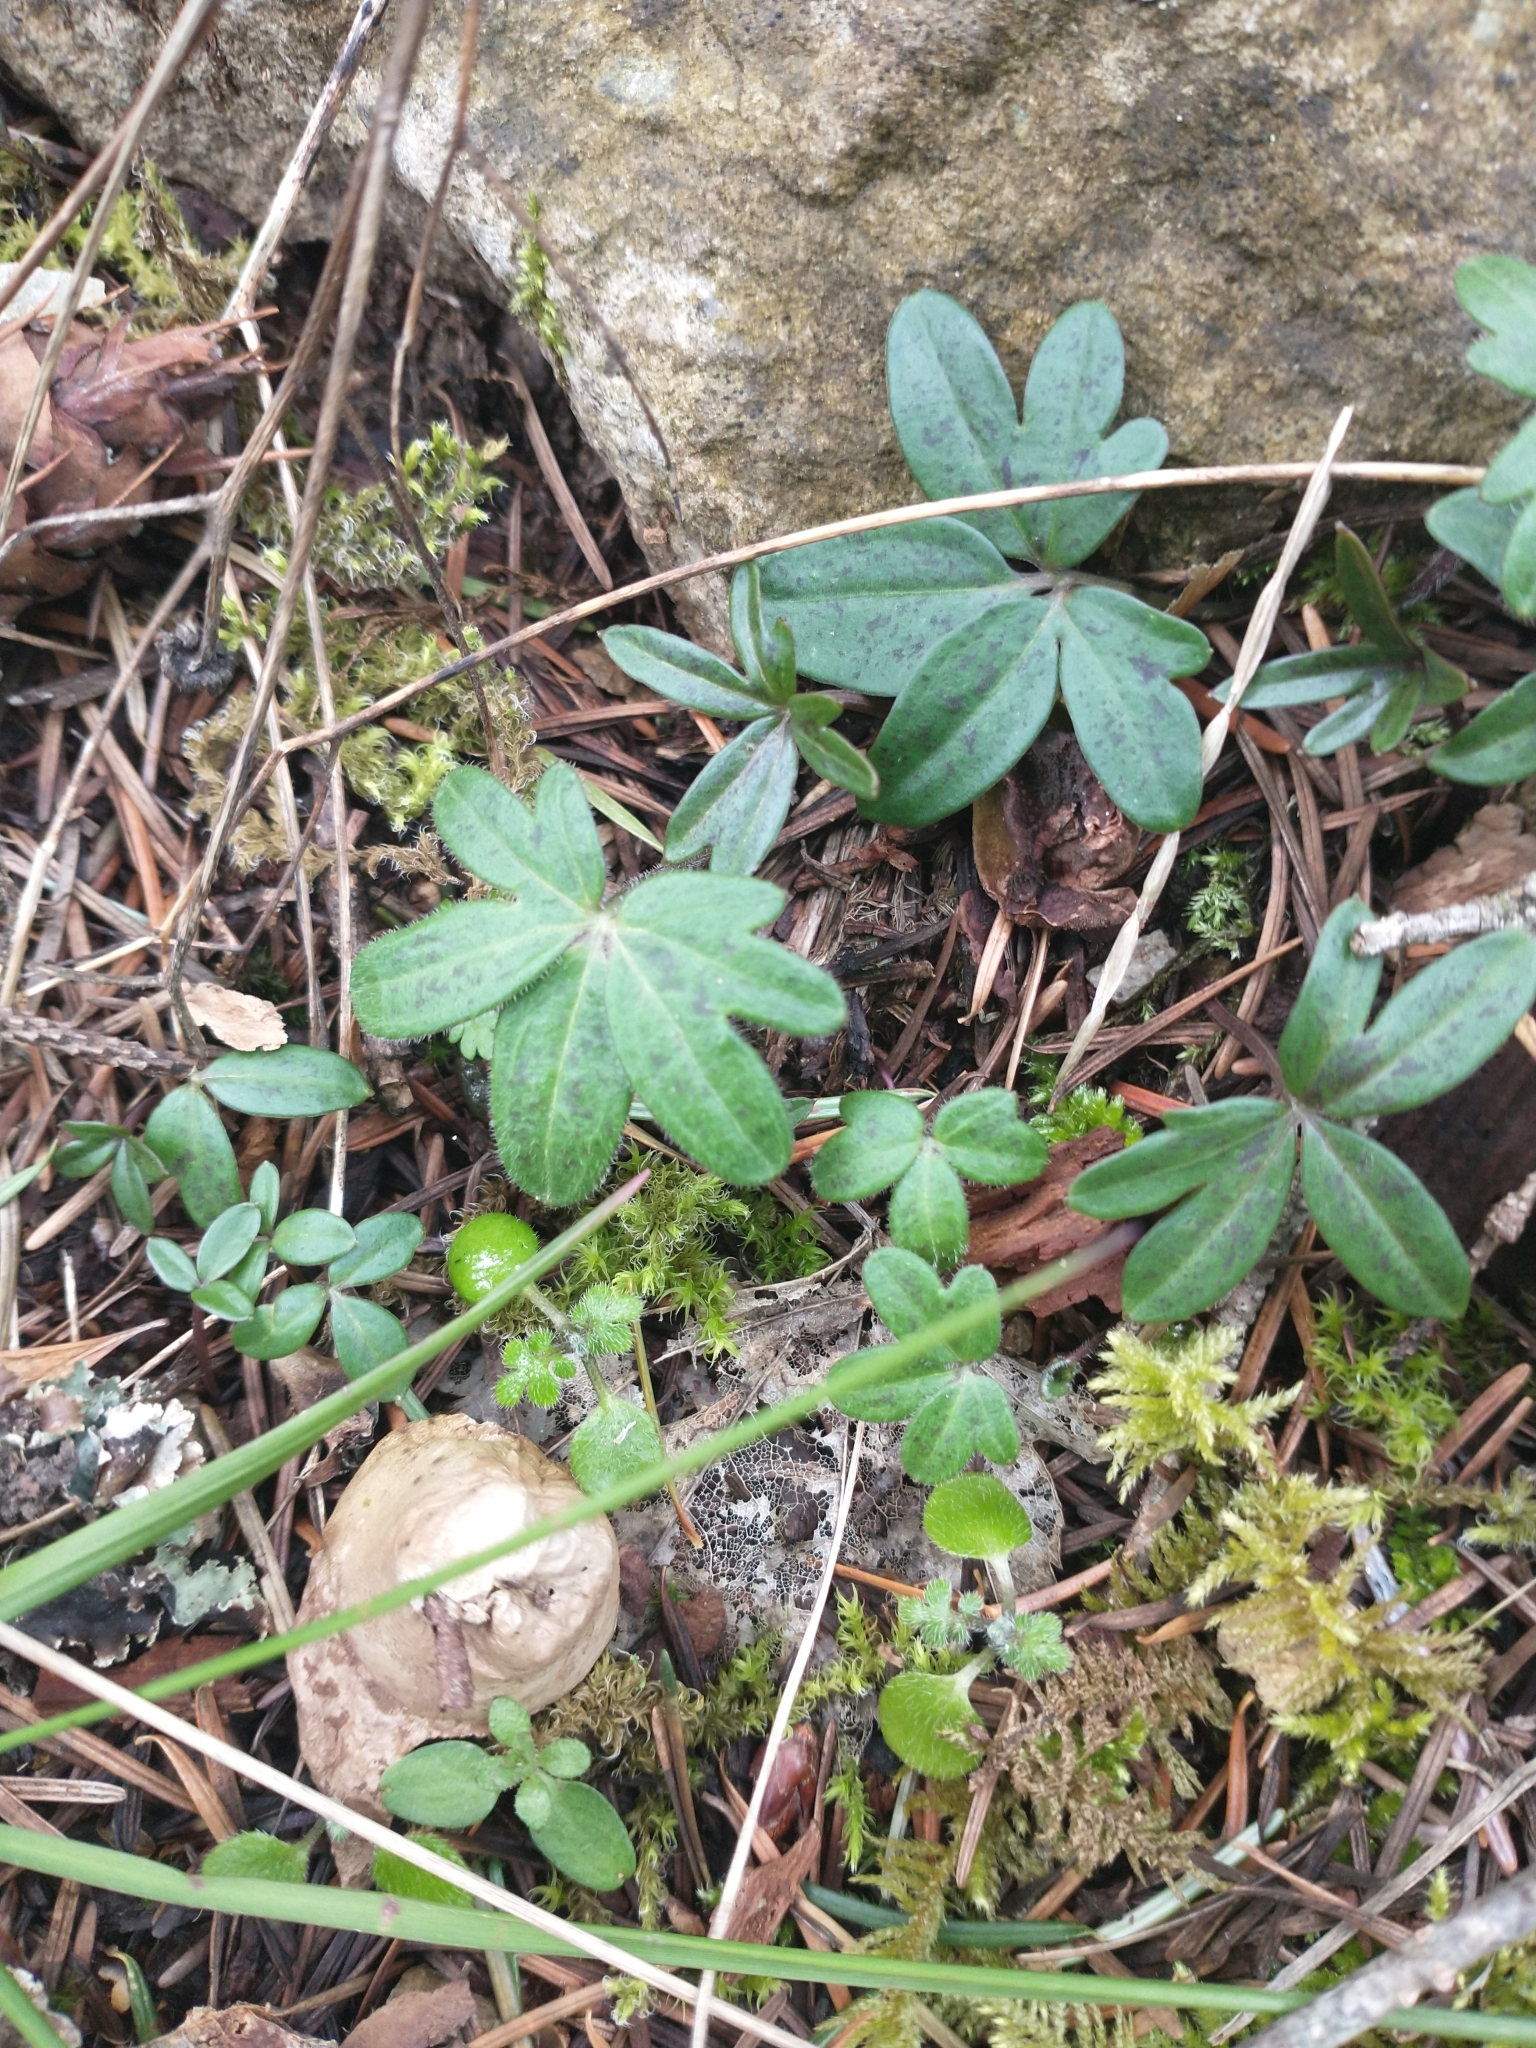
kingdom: Plantae
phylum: Tracheophyta
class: Magnoliopsida
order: Brassicales
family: Brassicaceae
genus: Cardamine
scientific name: Cardamine nuttallii
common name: Nuttall's toothwort
